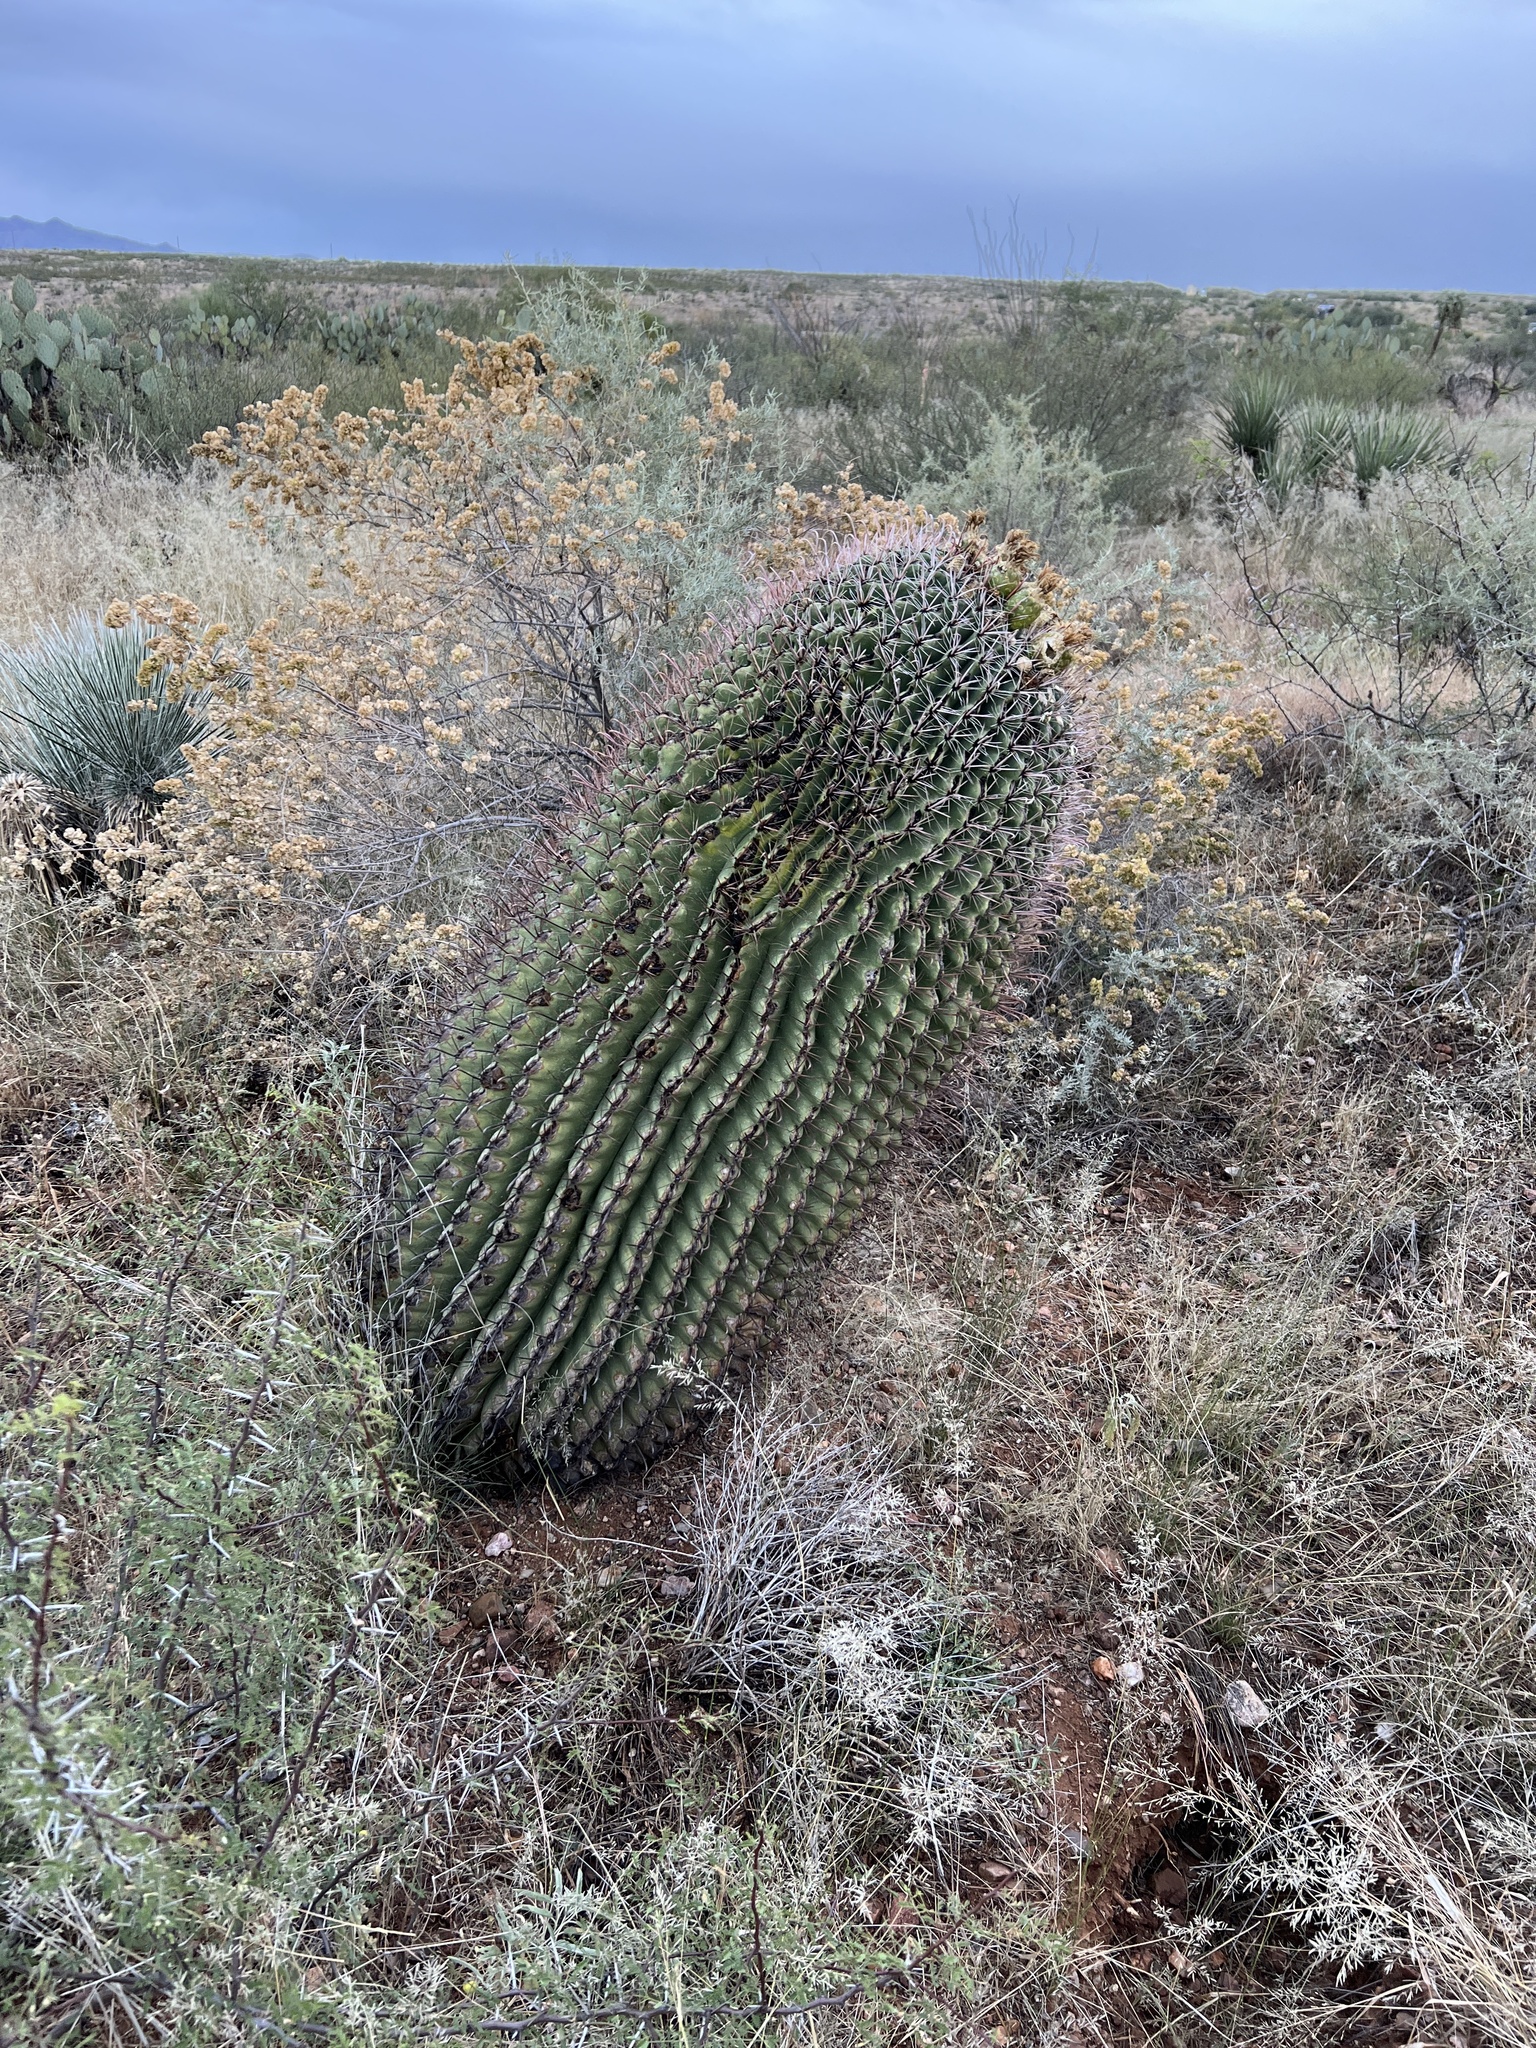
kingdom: Plantae
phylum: Tracheophyta
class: Magnoliopsida
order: Caryophyllales
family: Cactaceae
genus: Ferocactus
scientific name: Ferocactus wislizeni
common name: Candy barrel cactus
